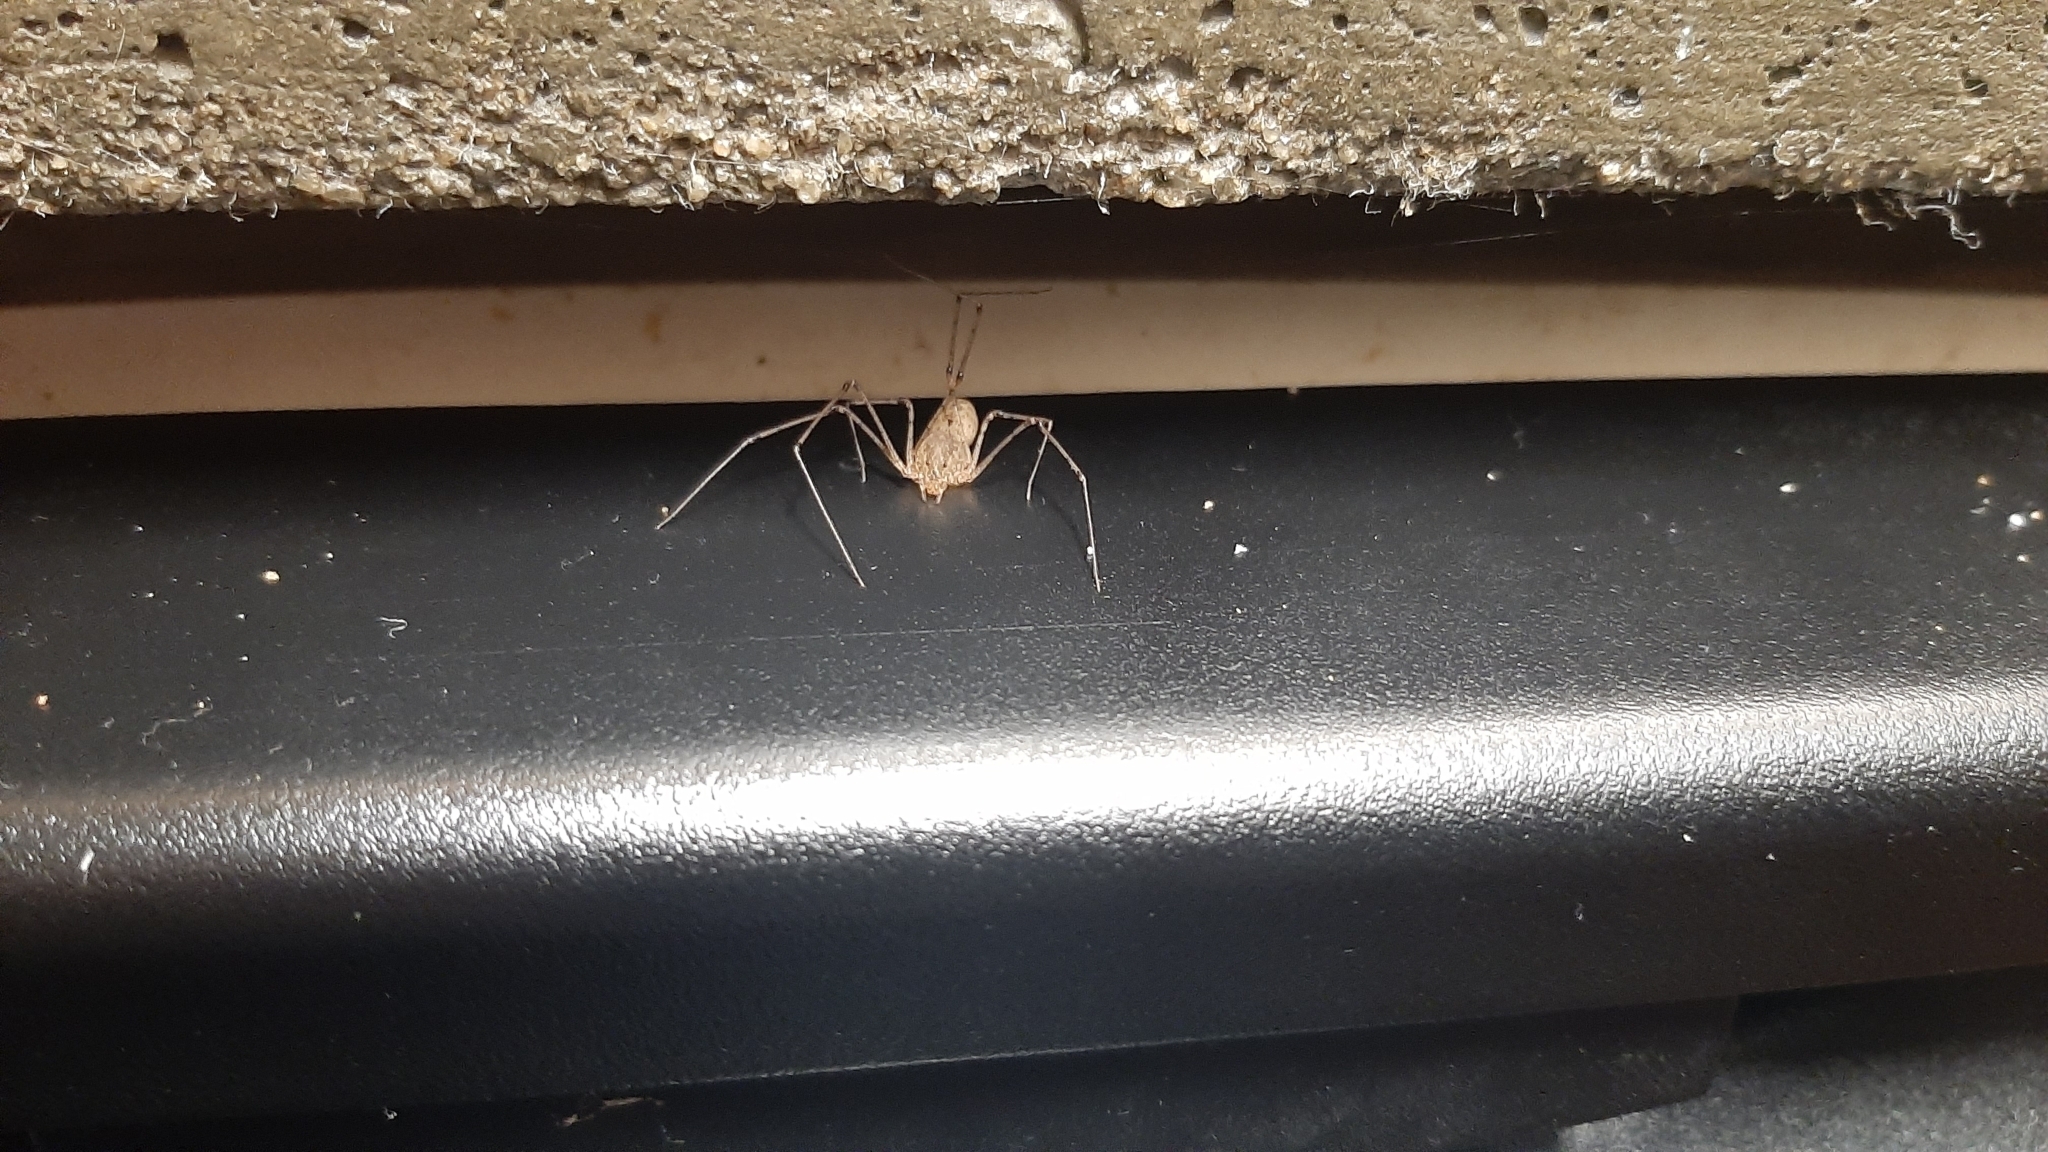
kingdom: Animalia
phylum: Arthropoda
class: Arachnida
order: Araneae
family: Scytodidae
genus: Scytodes
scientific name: Scytodes atlacoya
